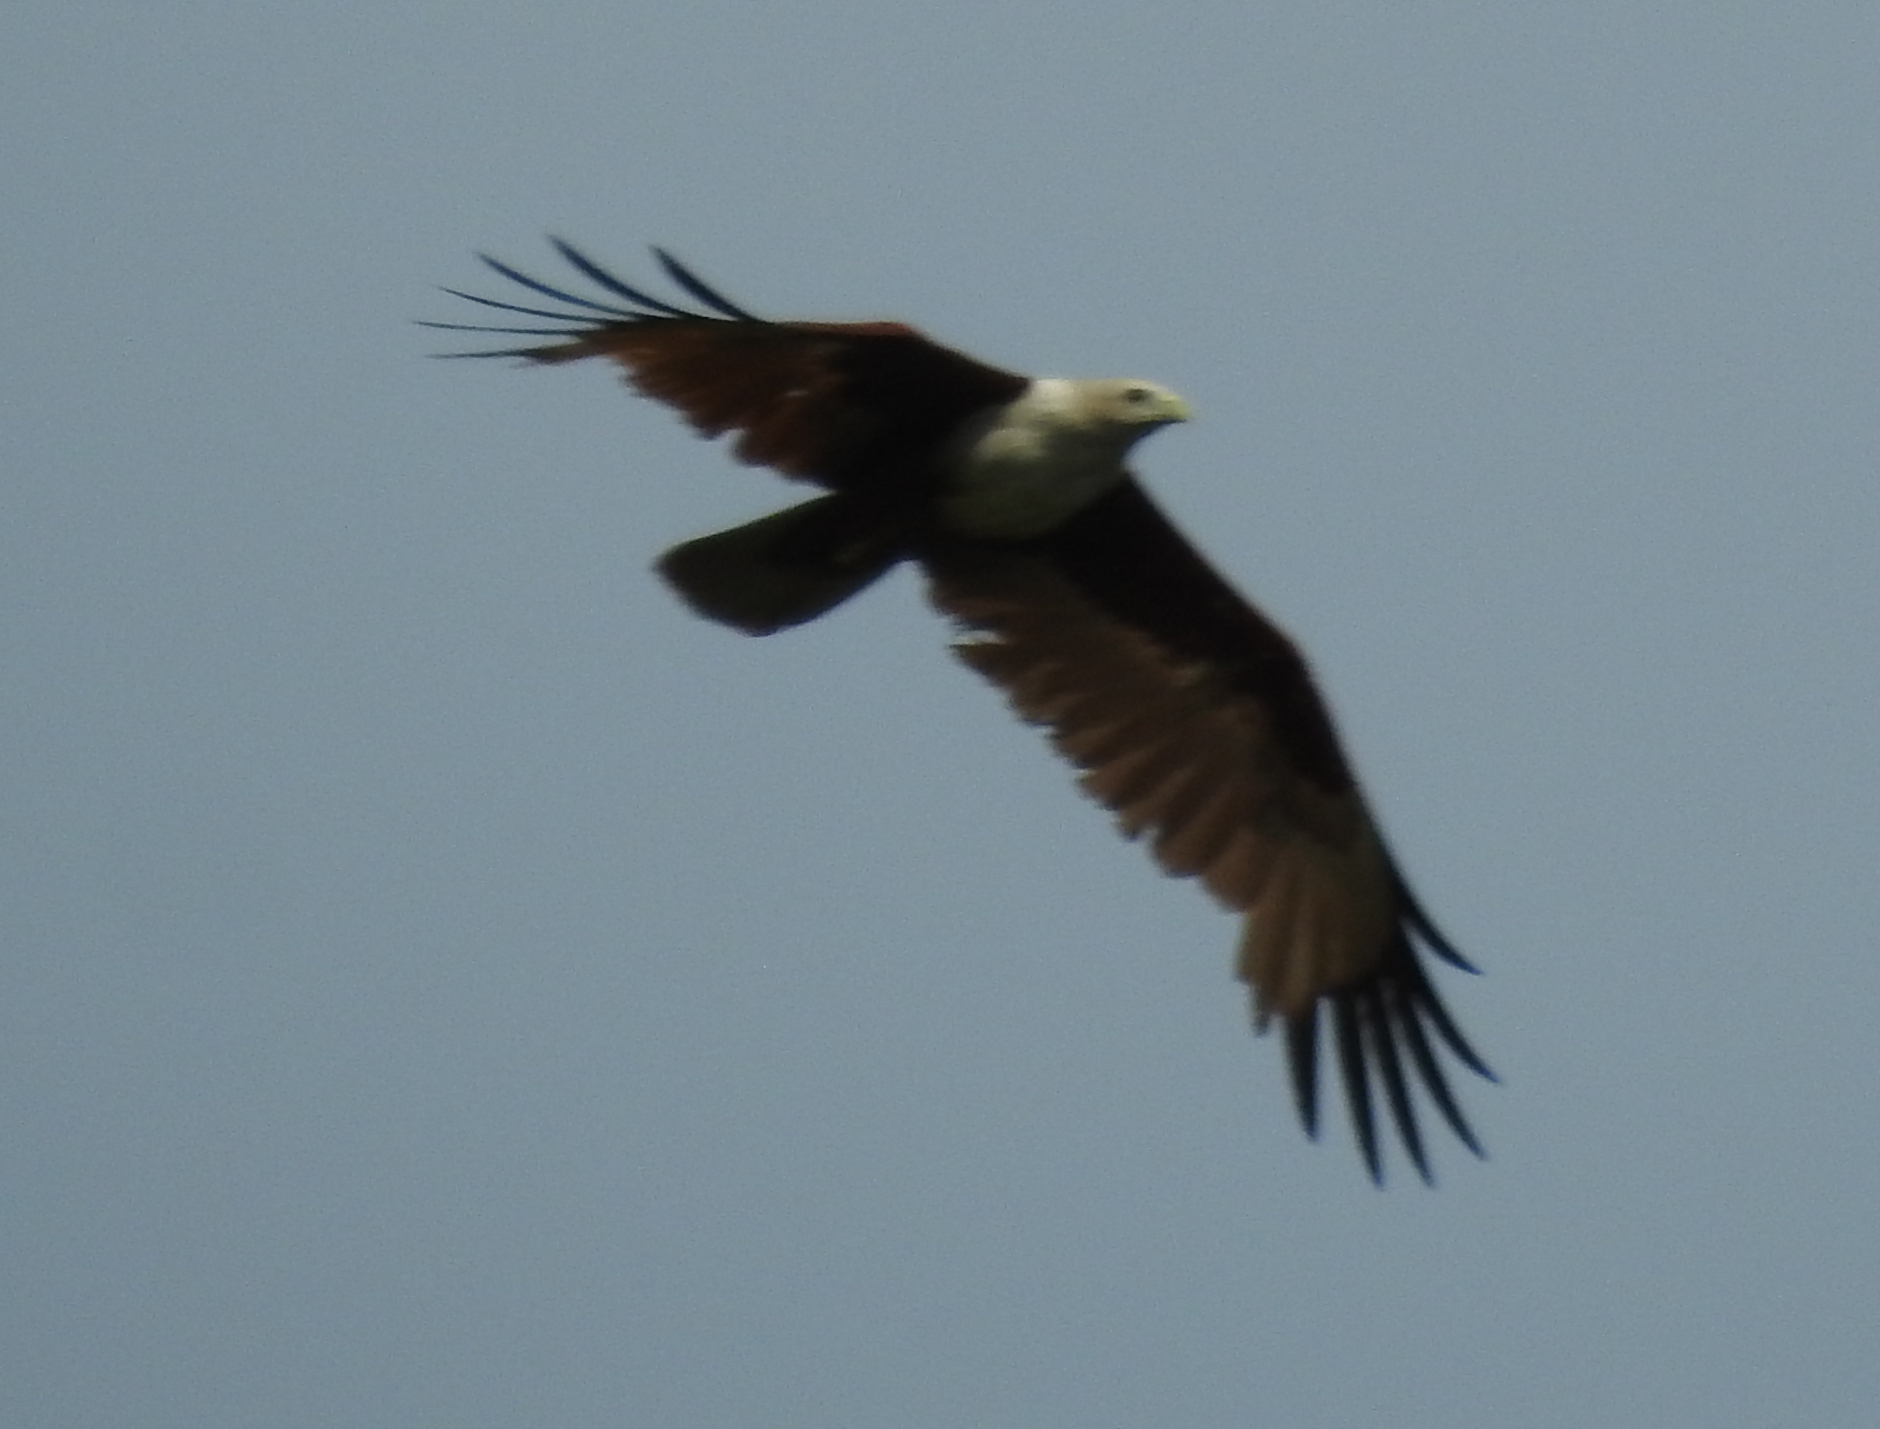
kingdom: Animalia
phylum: Chordata
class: Aves
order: Accipitriformes
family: Accipitridae
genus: Haliastur
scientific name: Haliastur indus
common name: Brahminy kite
